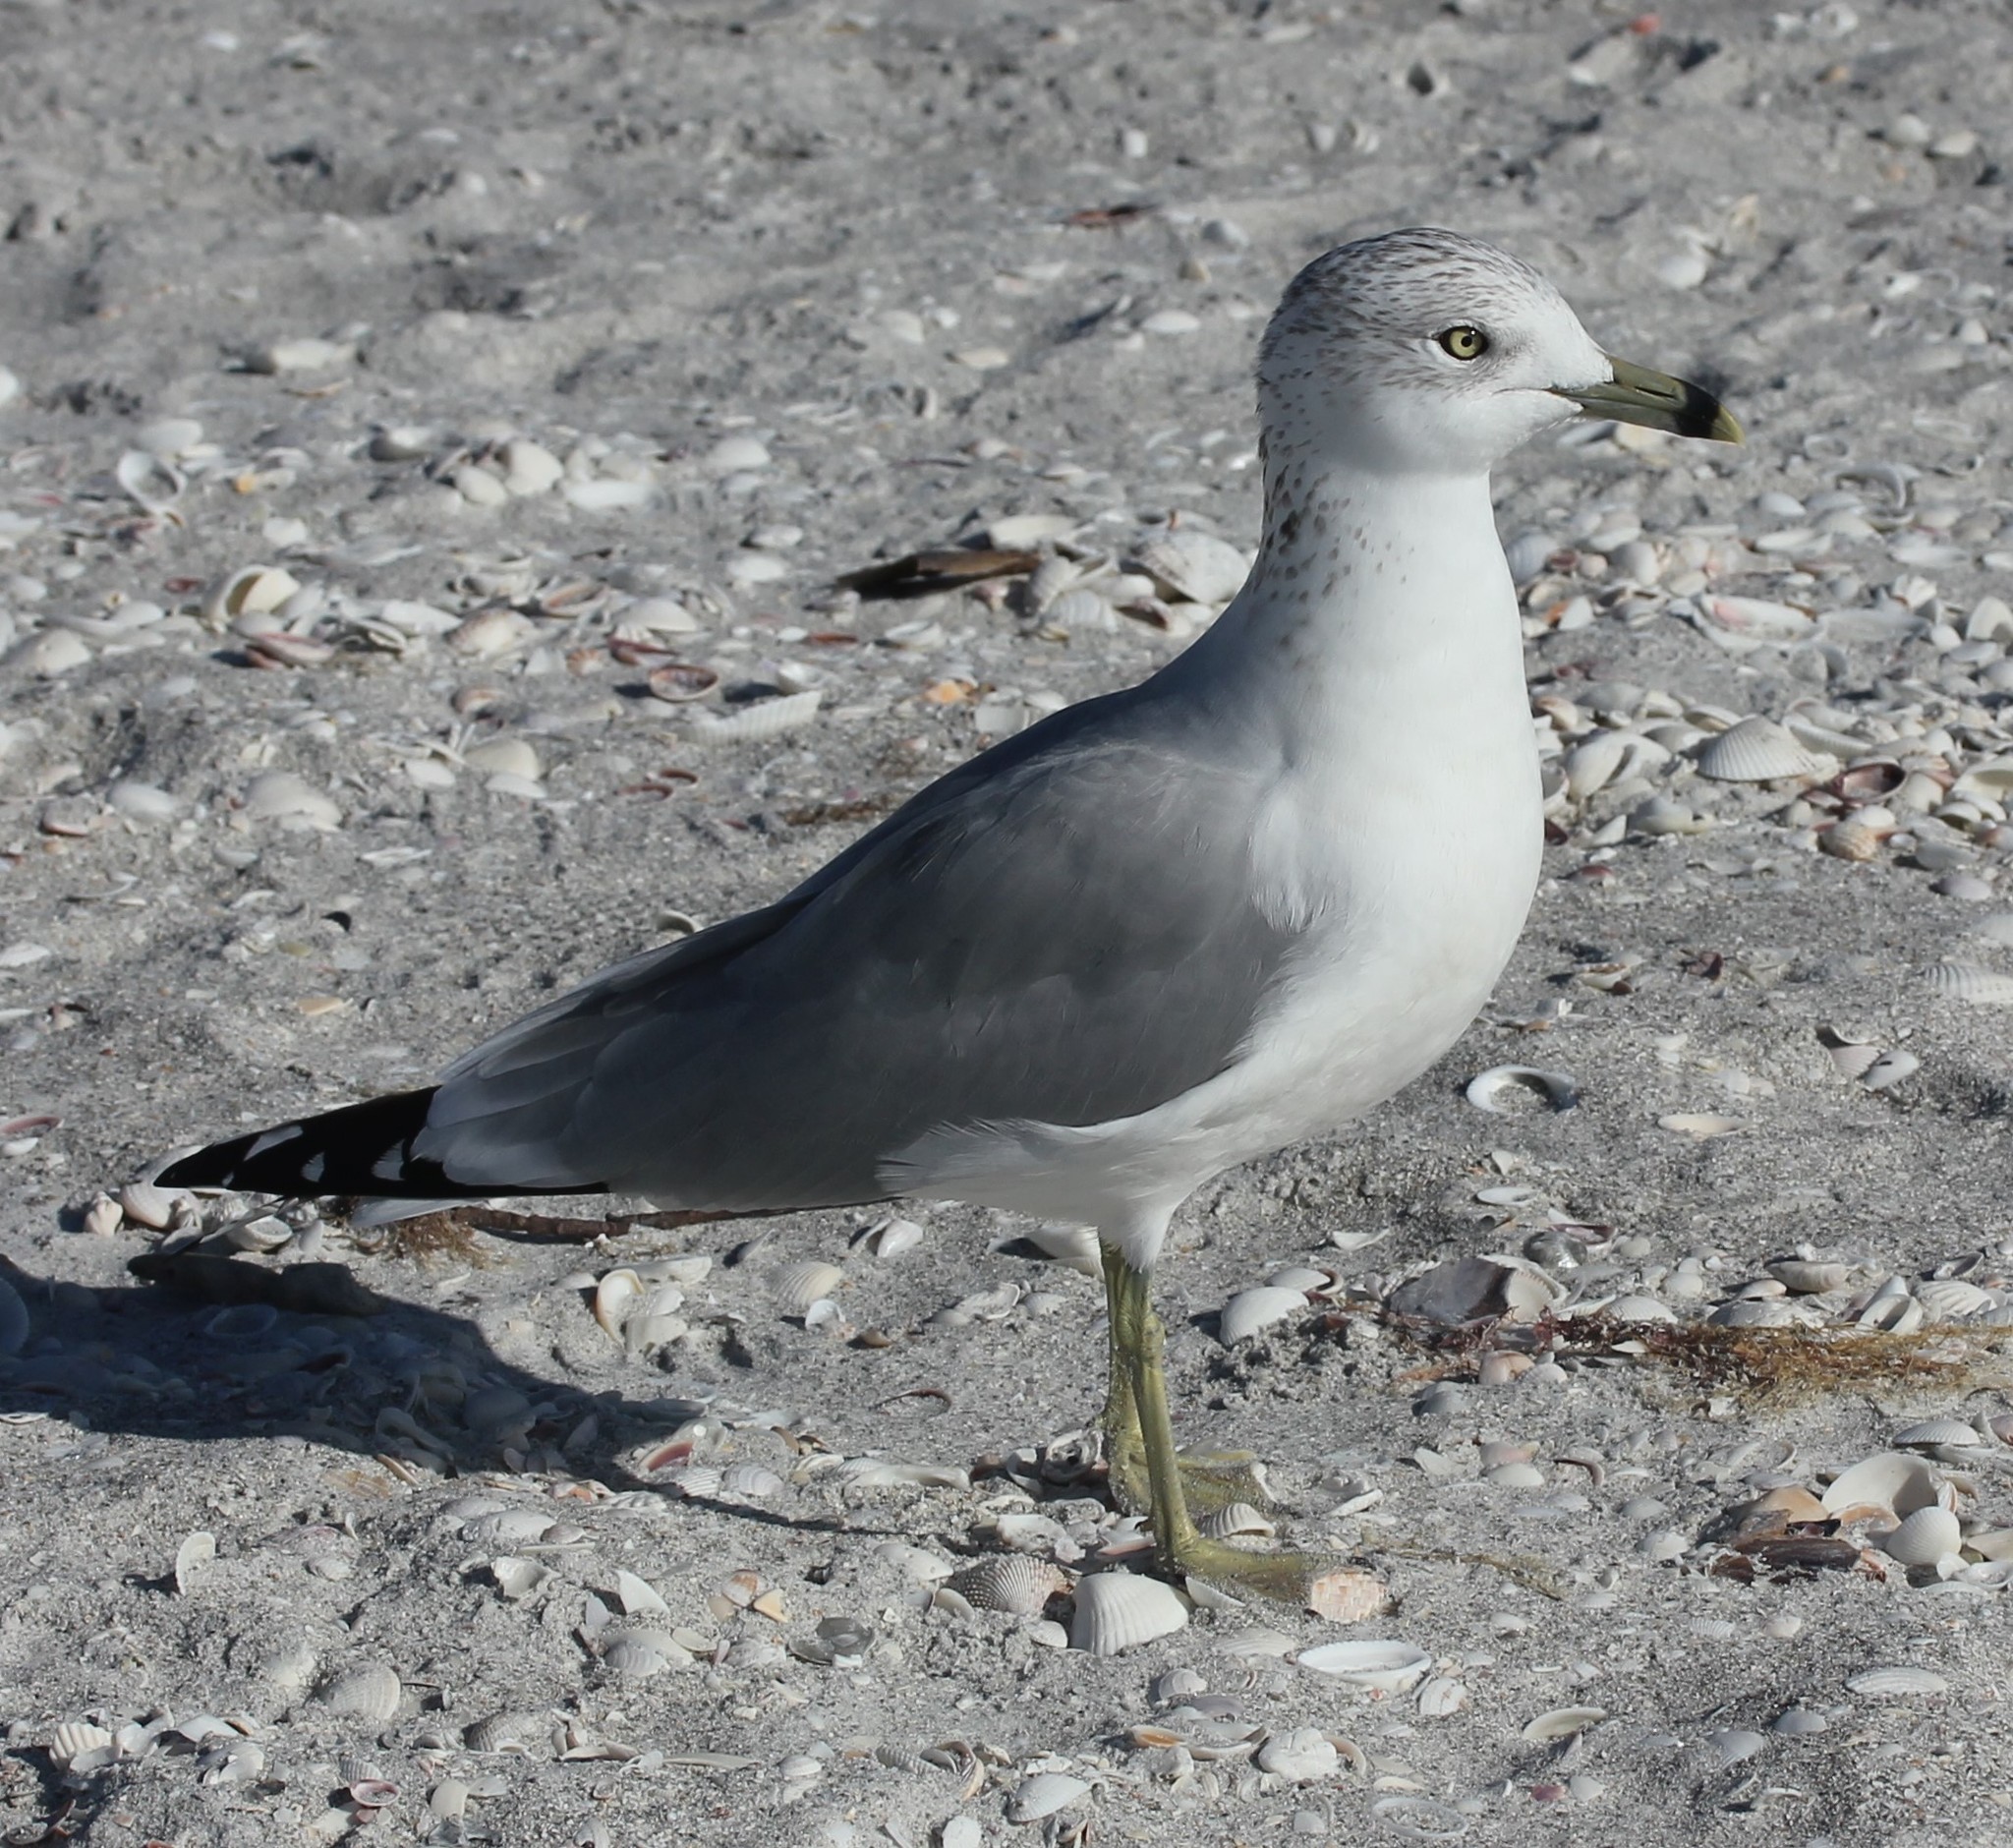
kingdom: Animalia
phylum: Chordata
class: Aves
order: Charadriiformes
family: Laridae
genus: Larus
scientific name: Larus delawarensis
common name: Ring-billed gull
